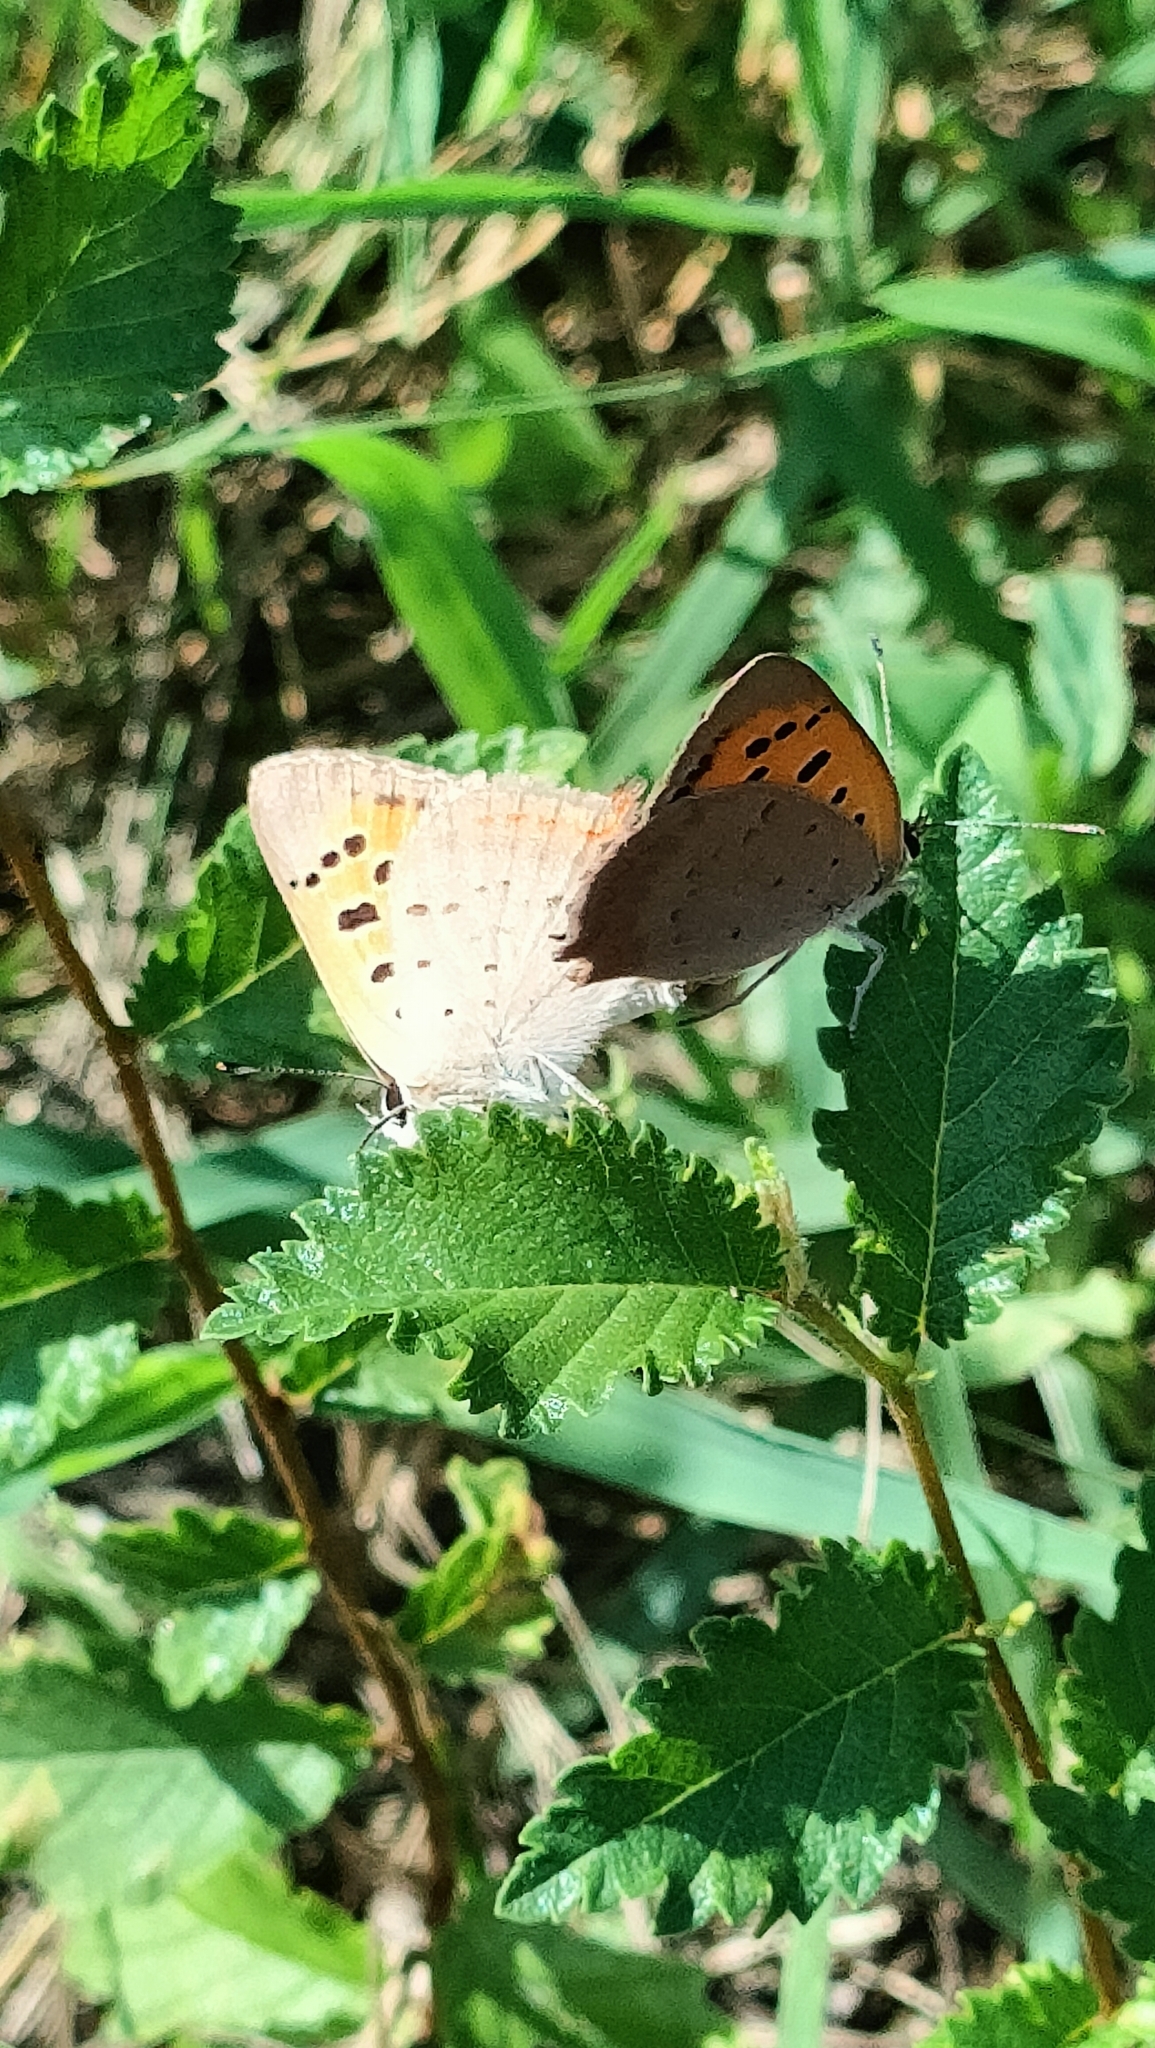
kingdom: Animalia
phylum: Arthropoda
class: Insecta
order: Lepidoptera
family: Lycaenidae
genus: Lycaena
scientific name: Lycaena phlaeas
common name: Small copper
